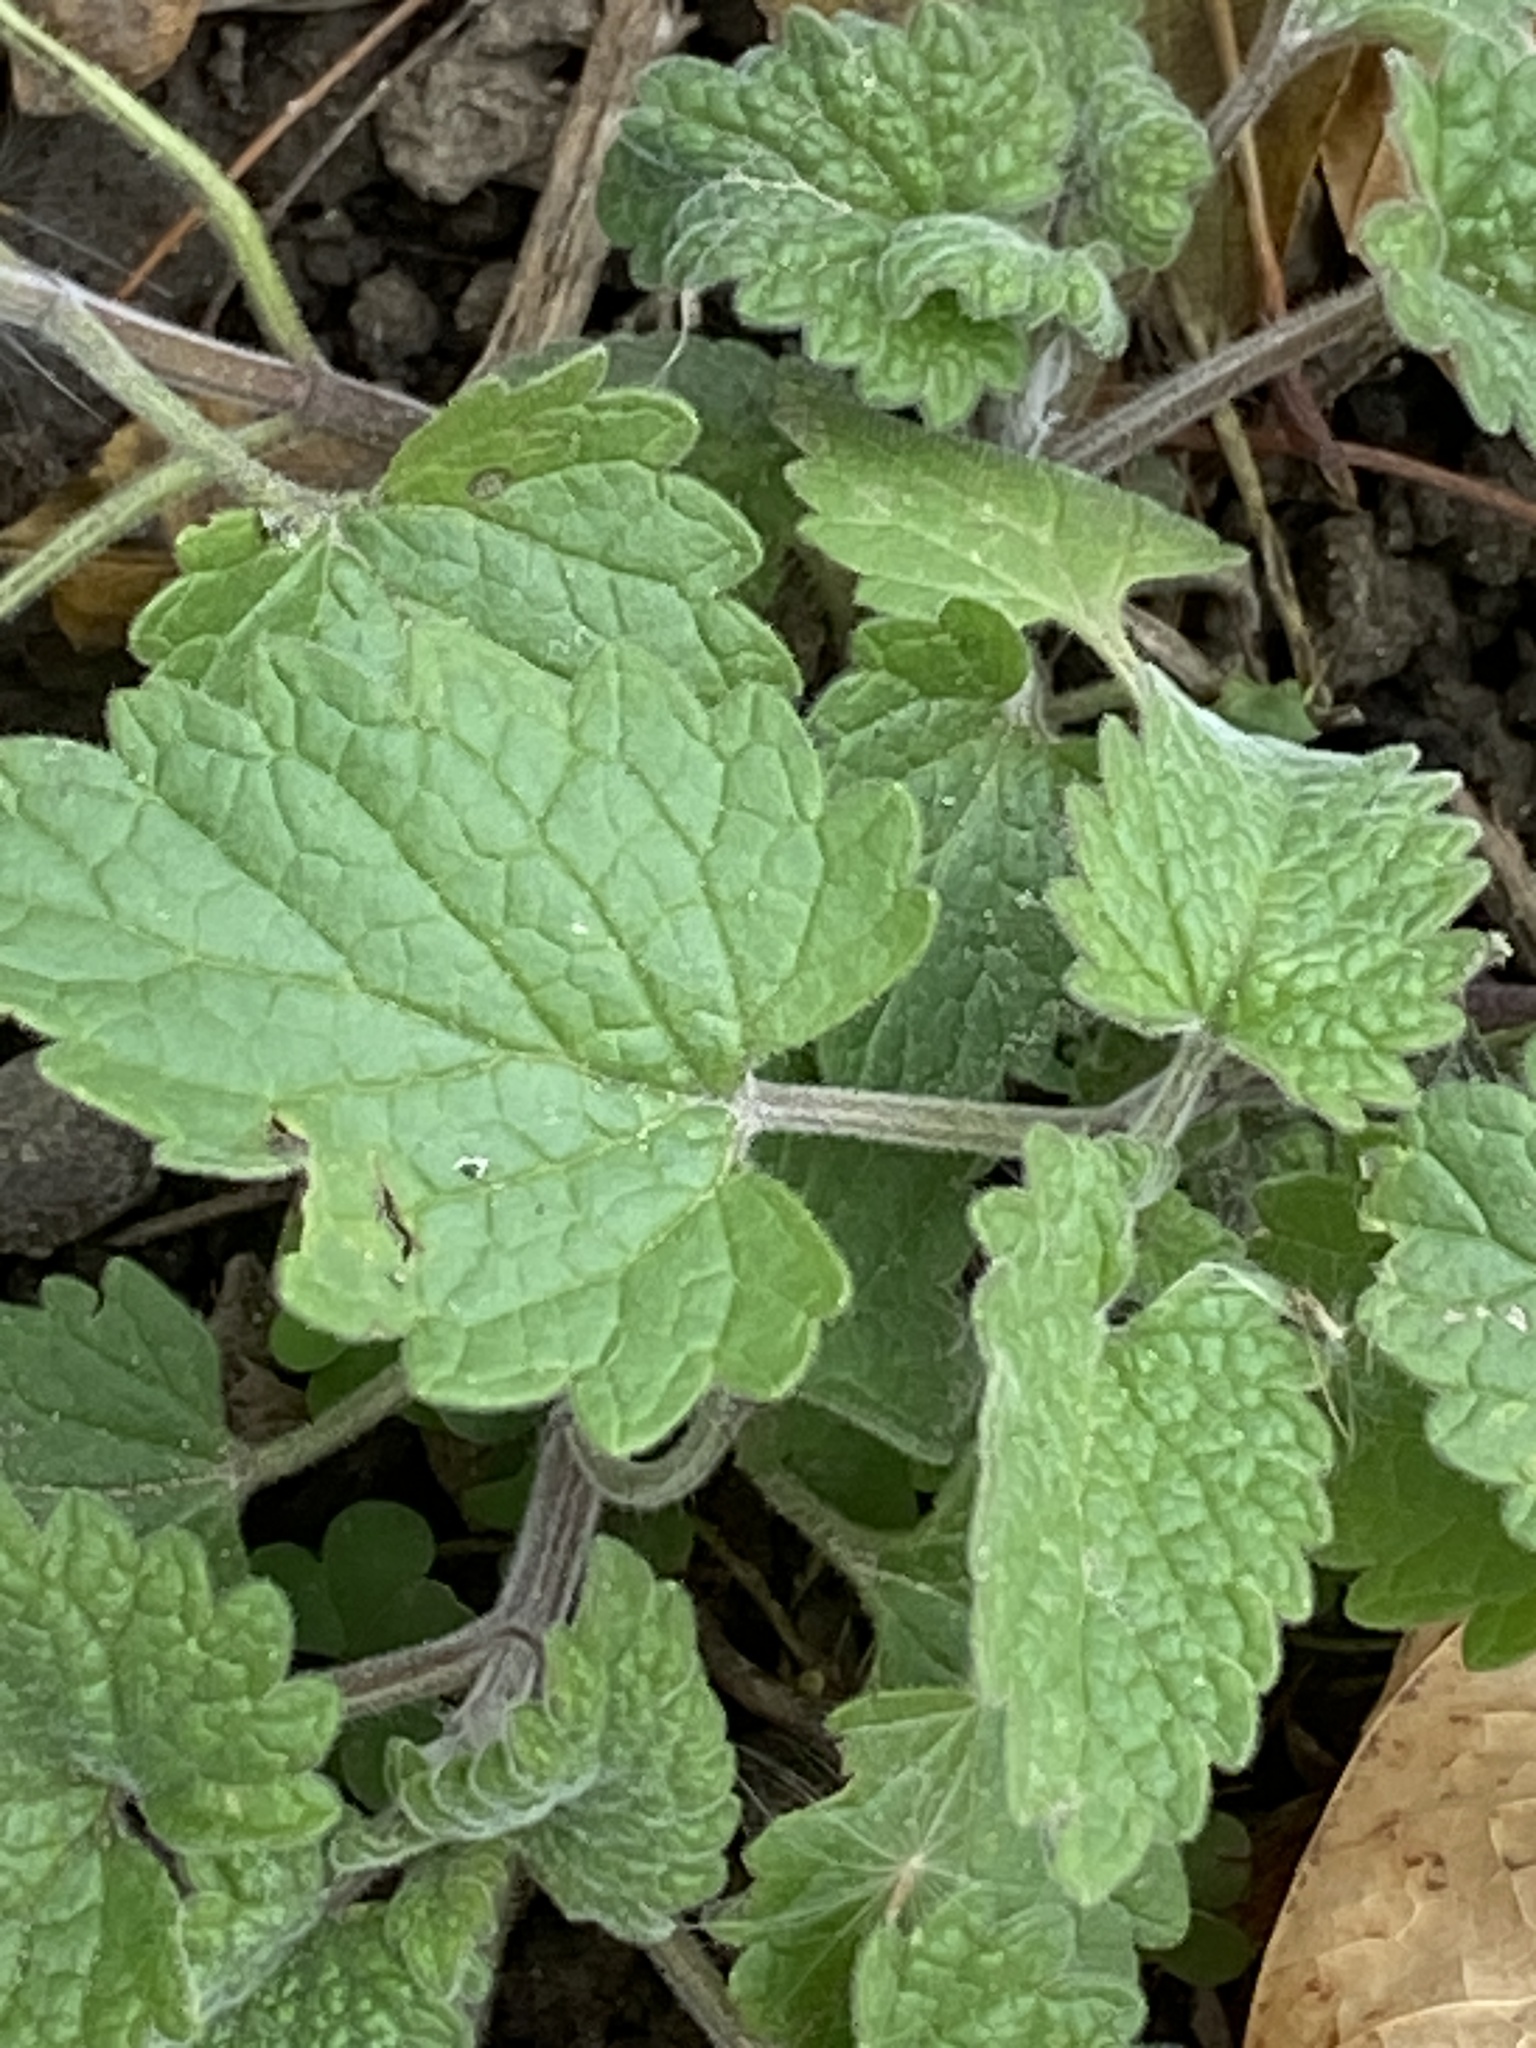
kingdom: Plantae
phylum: Tracheophyta
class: Magnoliopsida
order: Lamiales
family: Lamiaceae
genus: Nepeta
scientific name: Nepeta cataria
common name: Catnip
